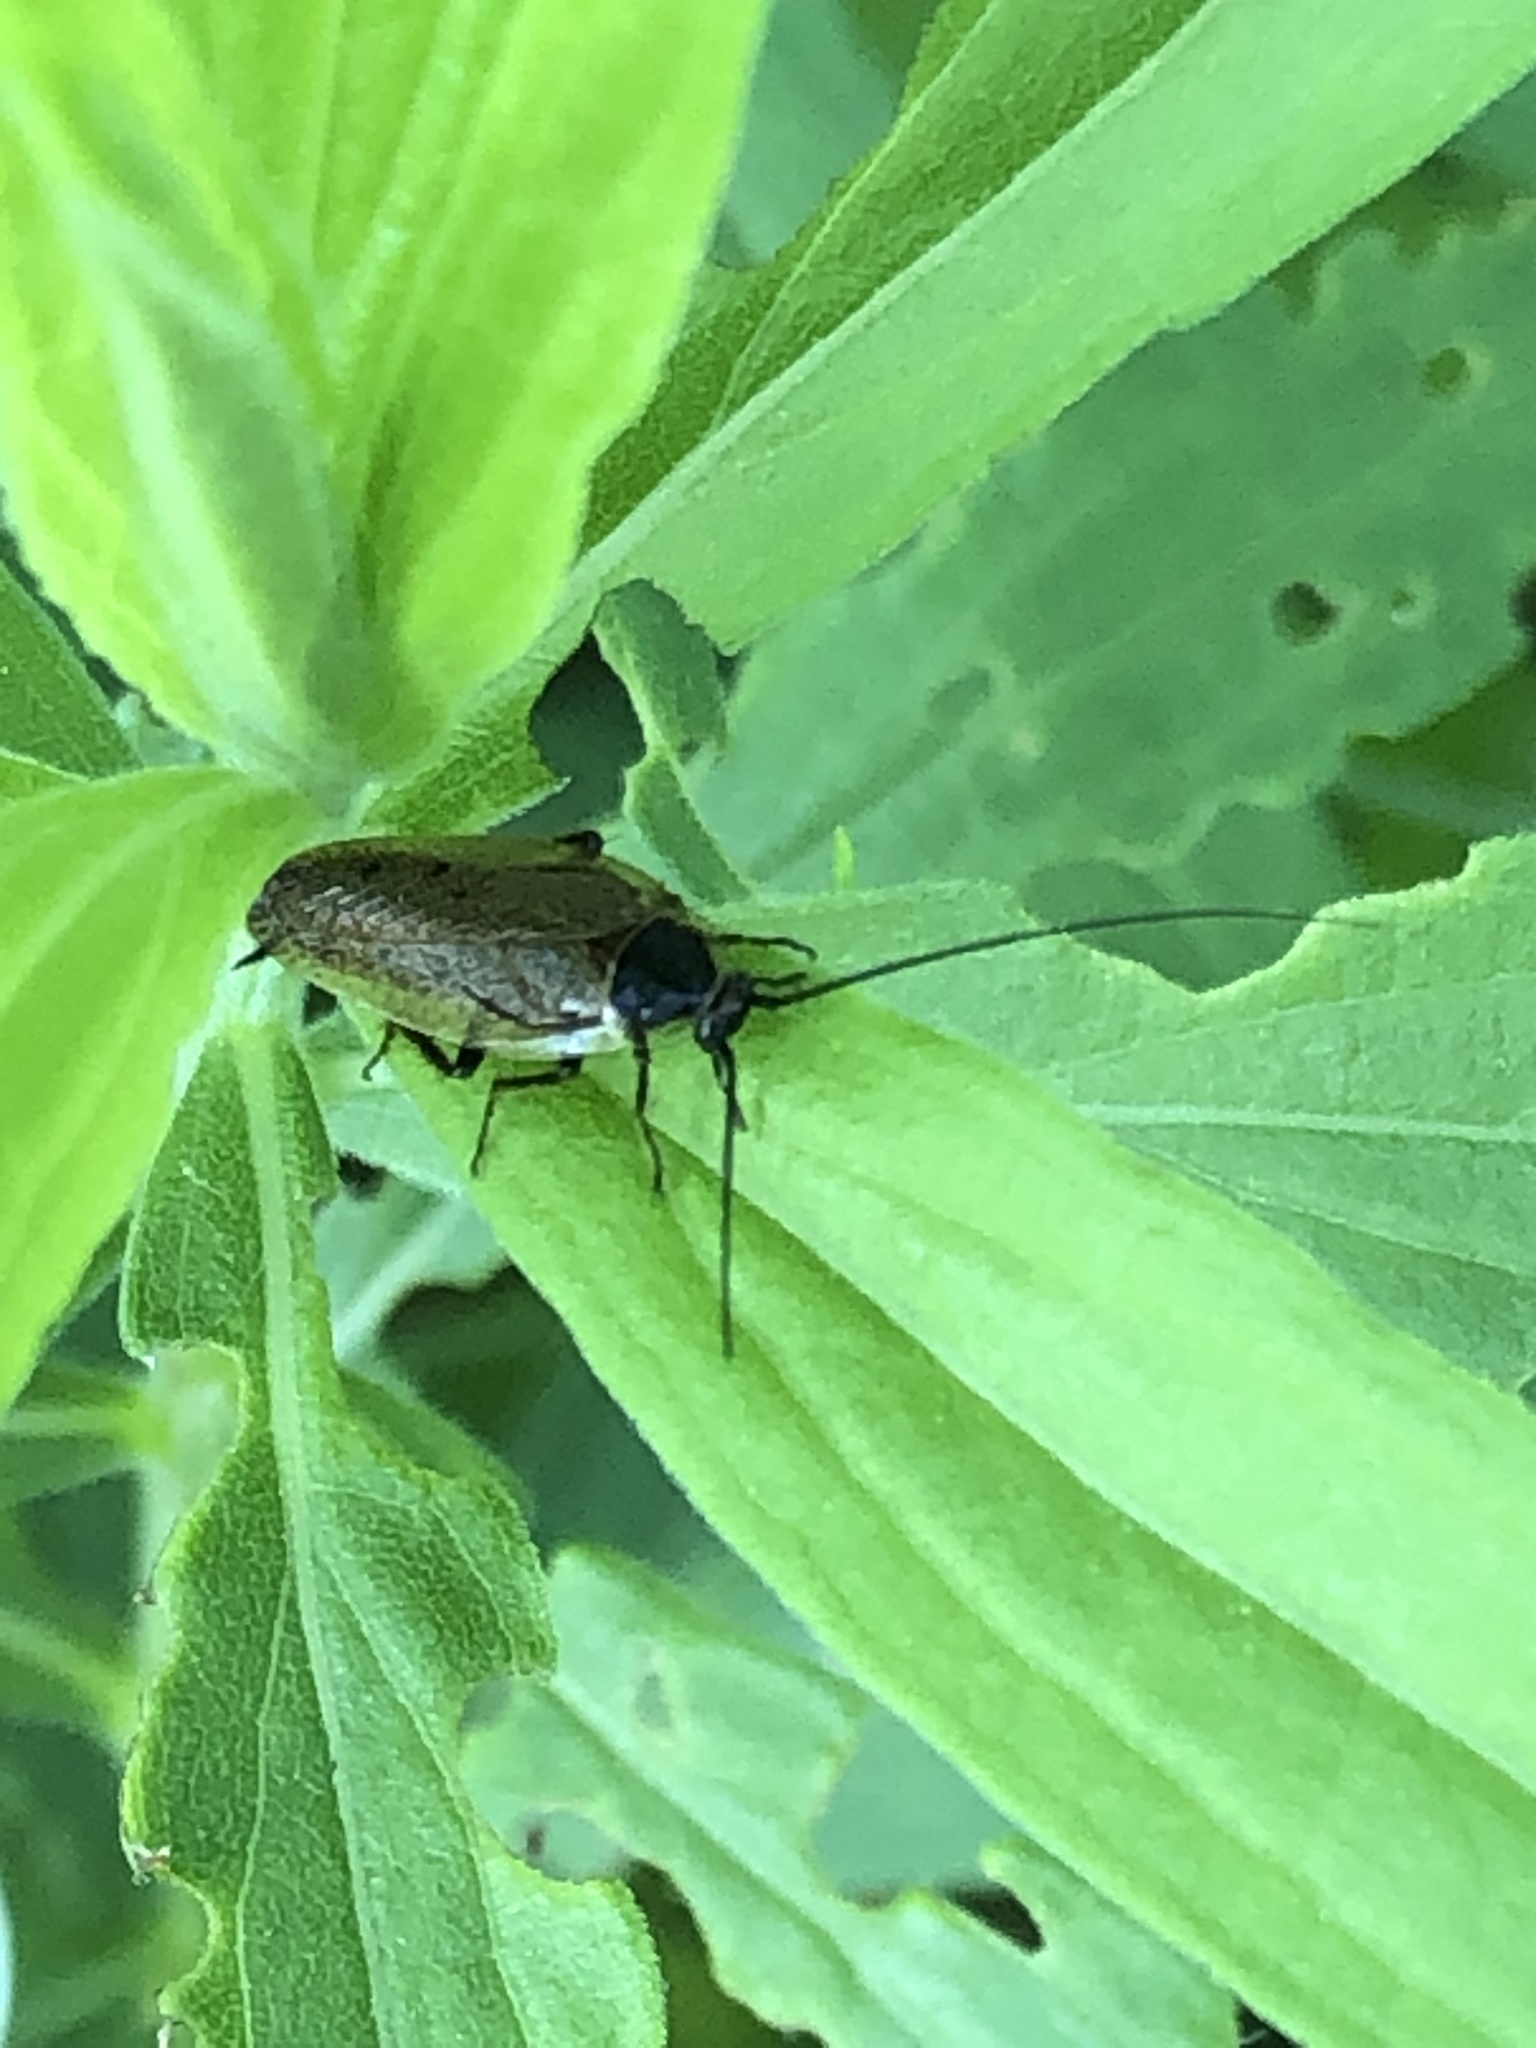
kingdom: Animalia
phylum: Arthropoda
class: Insecta
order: Blattodea
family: Ectobiidae
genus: Ectobius
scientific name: Ectobius lapponicus
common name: Dusky cockroach
